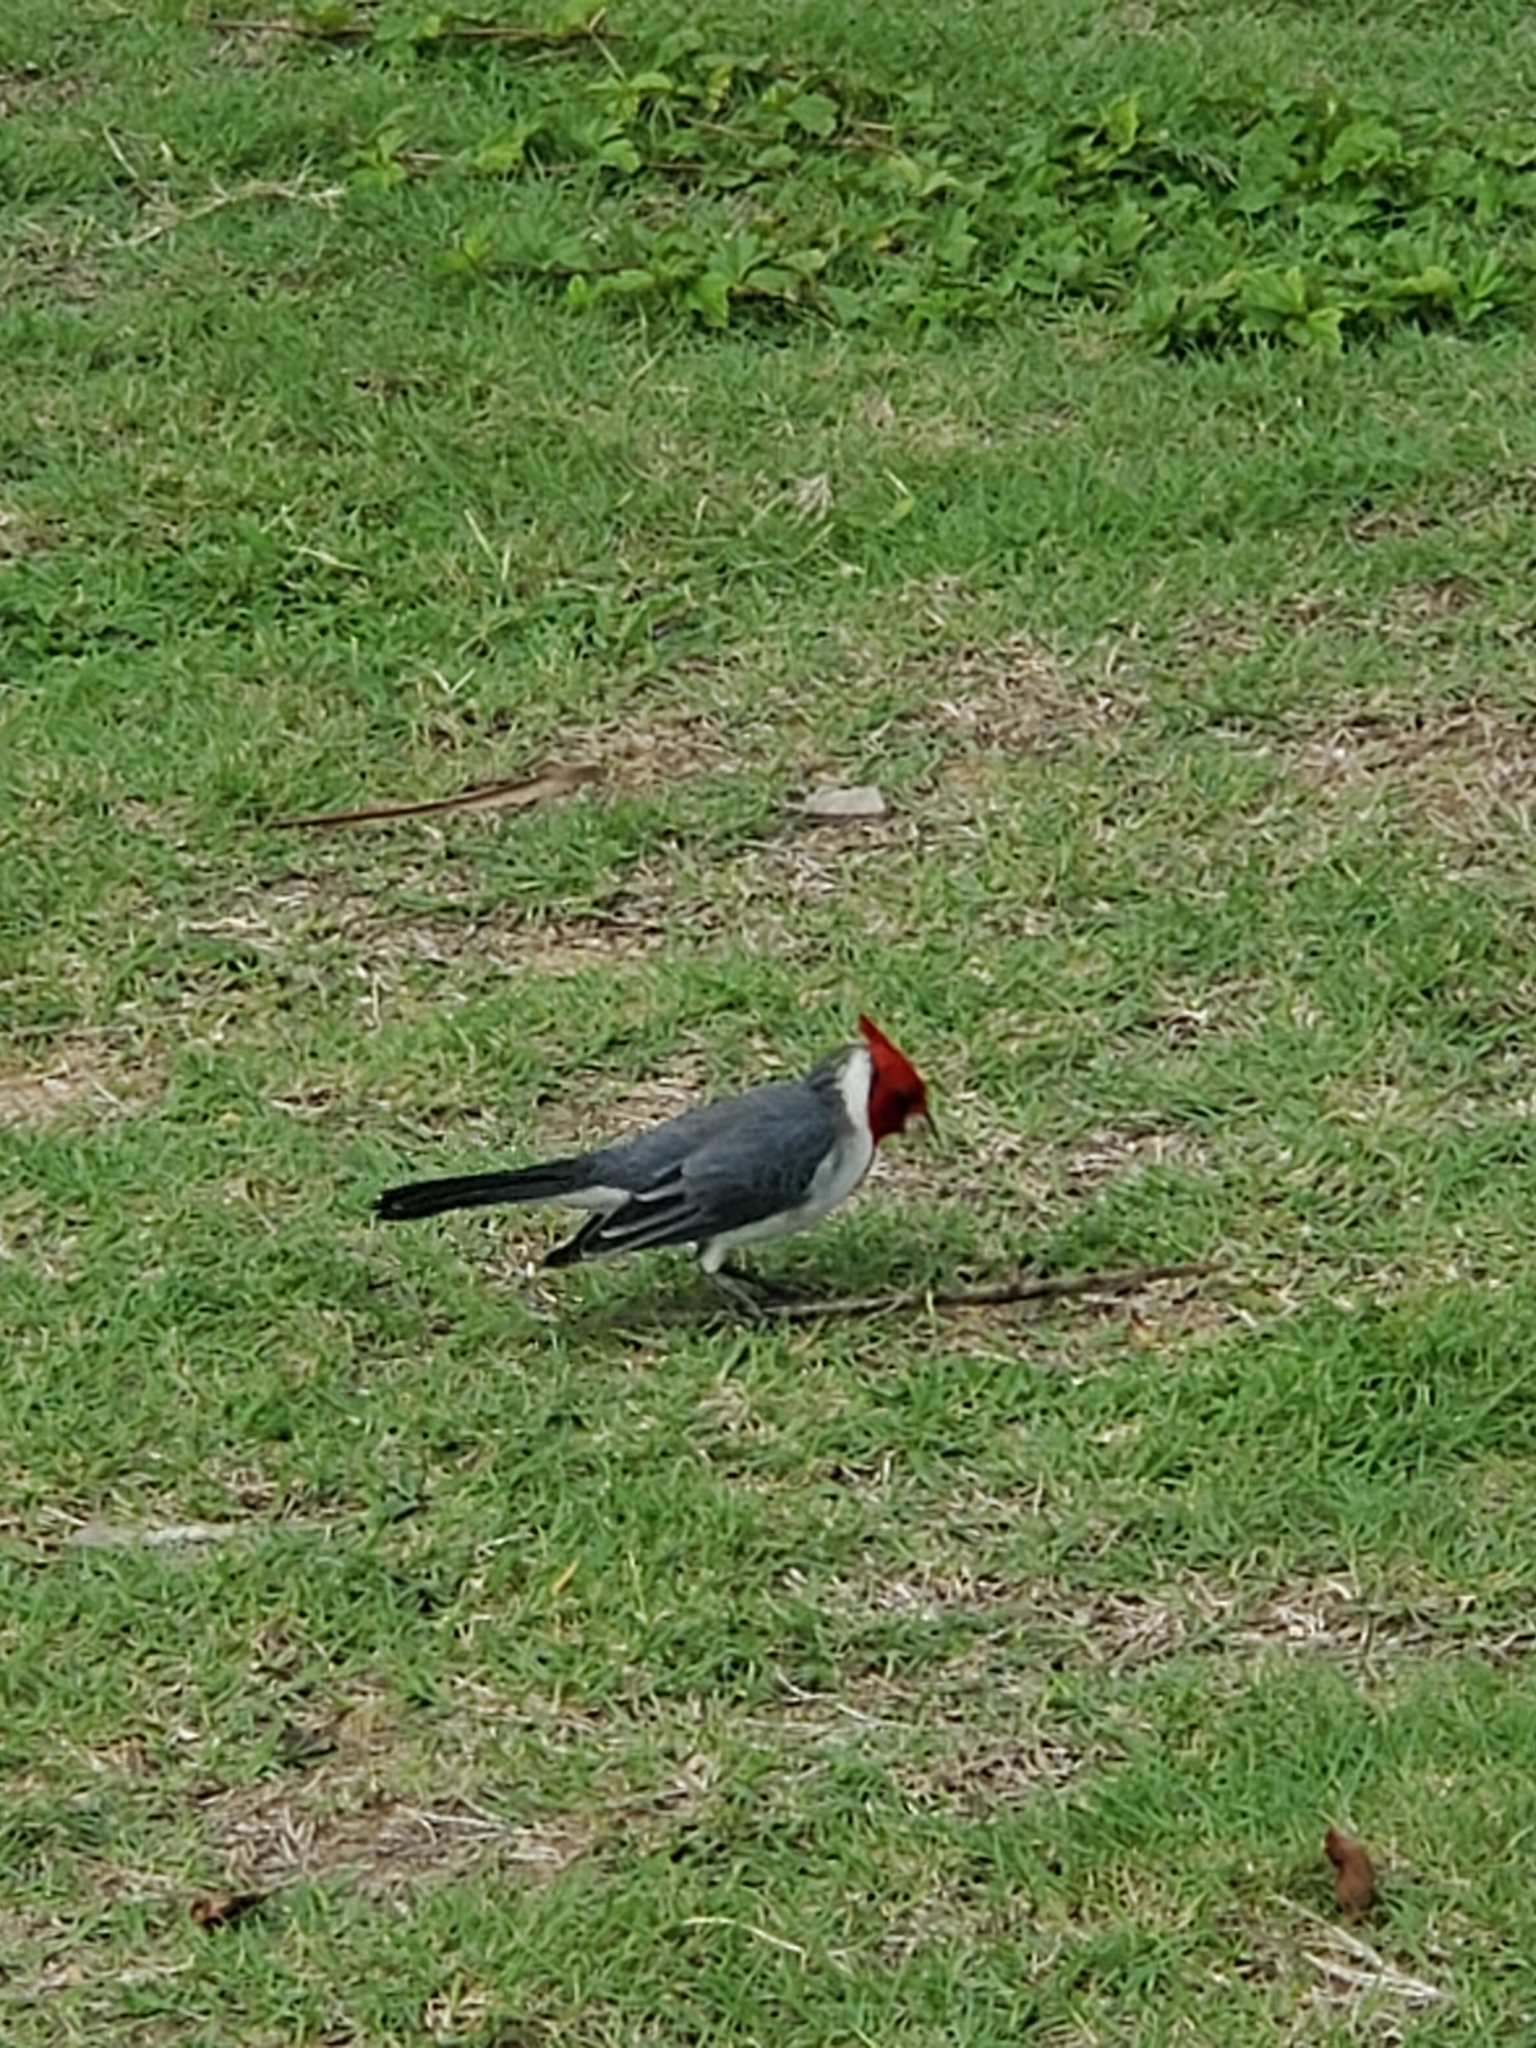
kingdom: Animalia
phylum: Chordata
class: Aves
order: Passeriformes
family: Thraupidae
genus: Paroaria
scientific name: Paroaria coronata
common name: Red-crested cardinal
